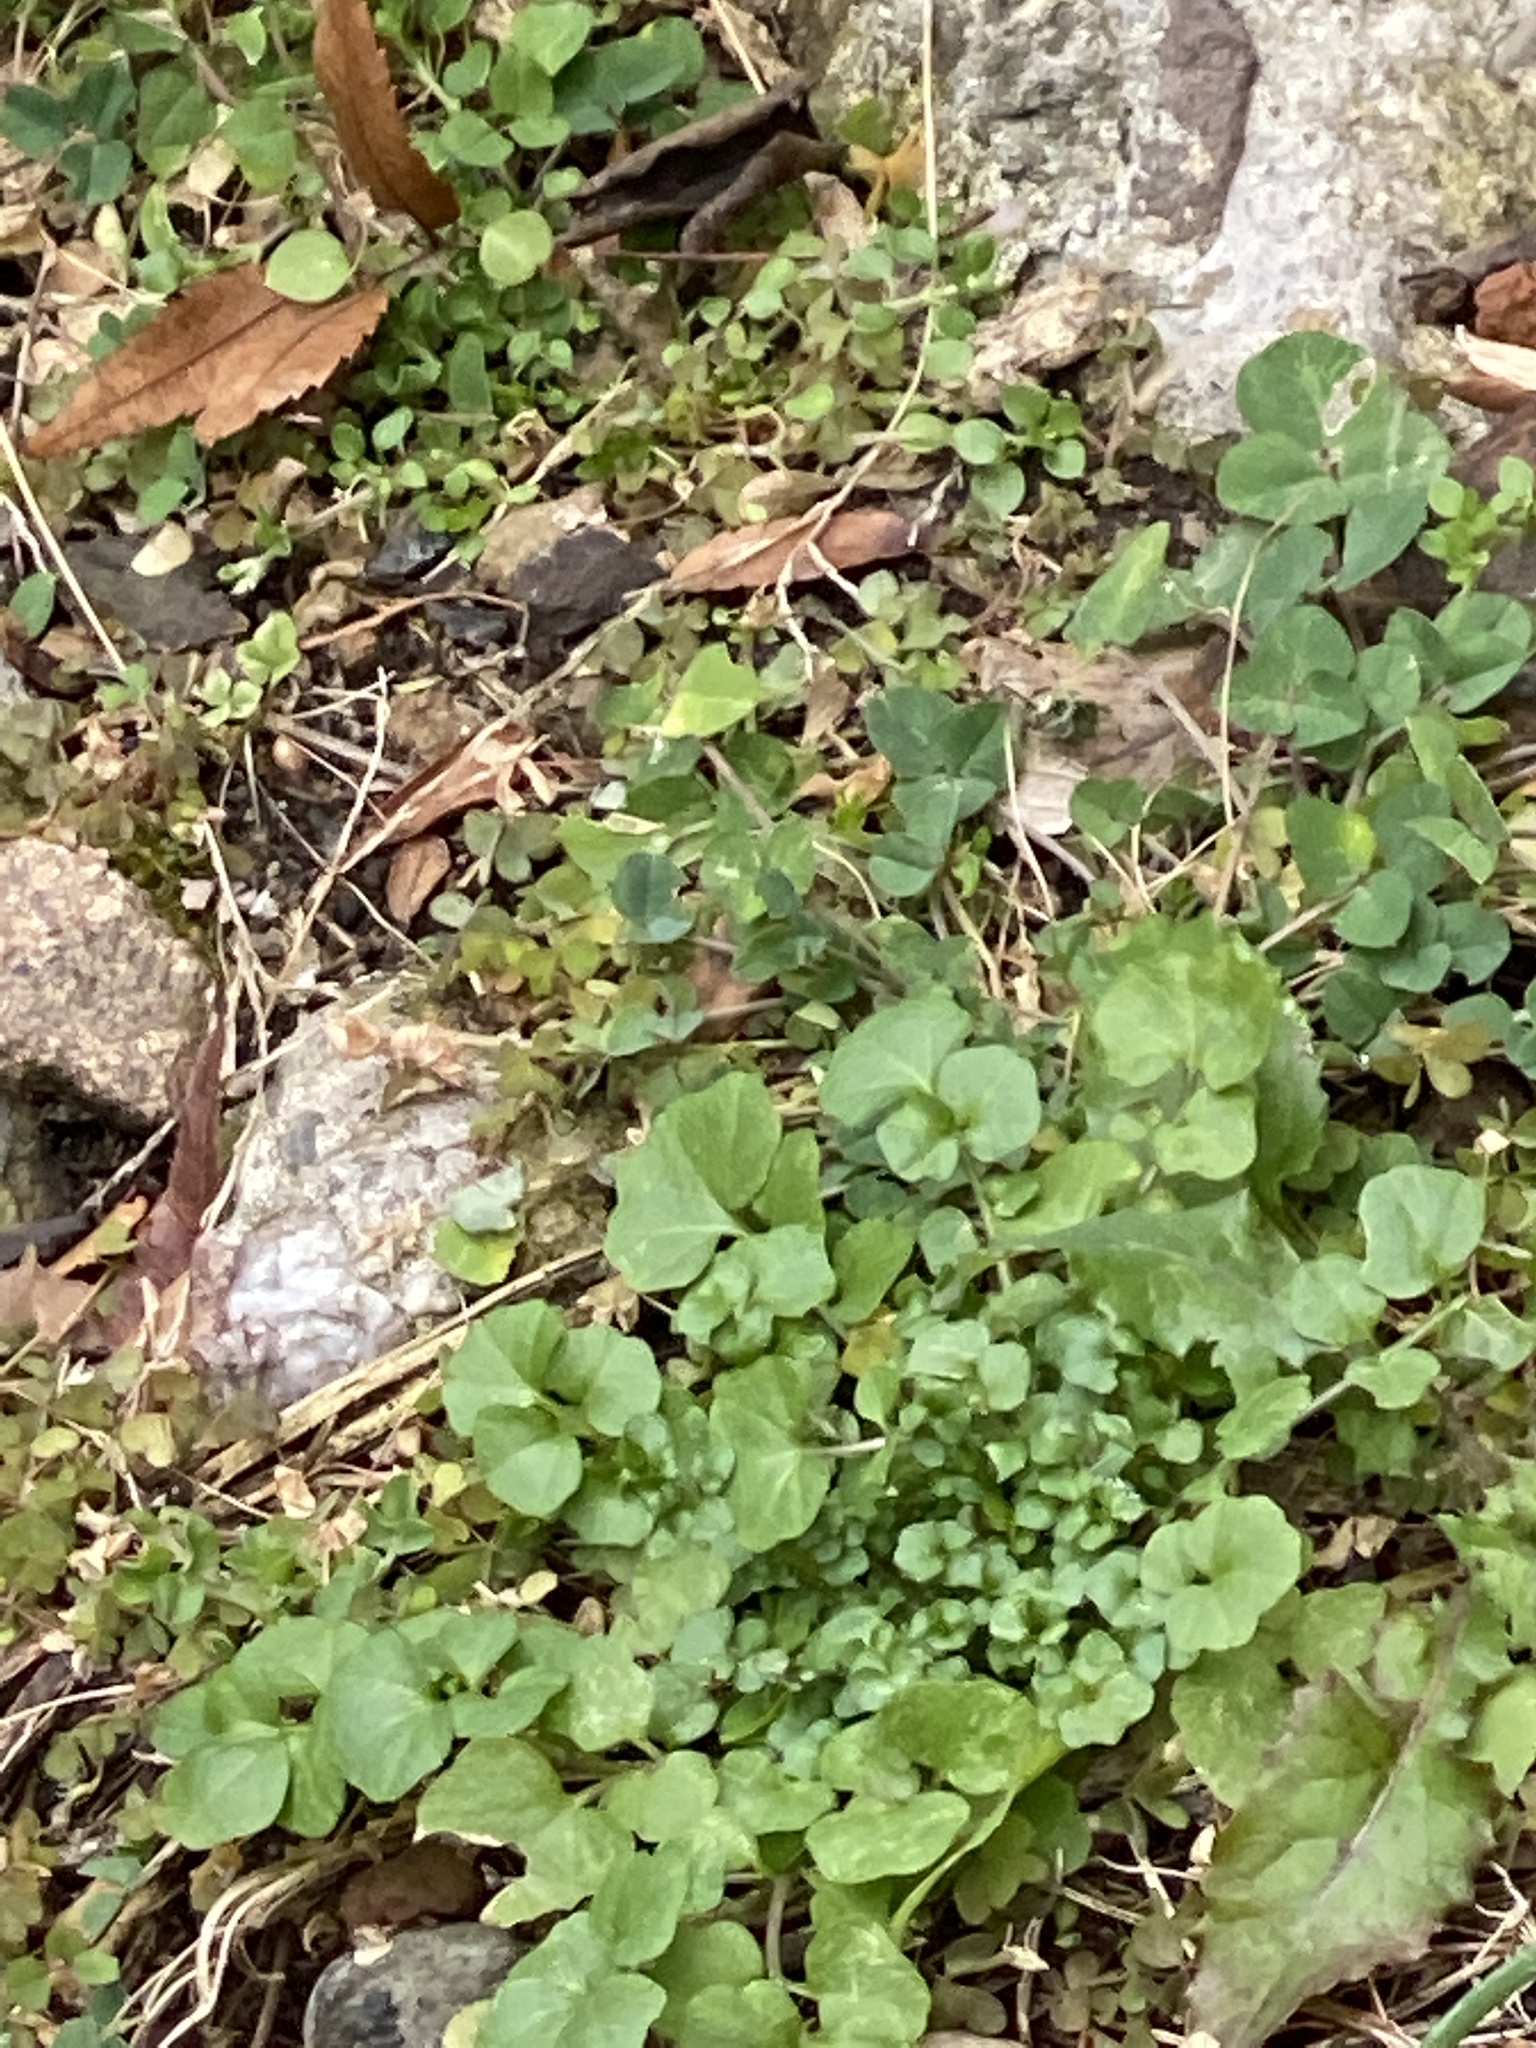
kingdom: Plantae
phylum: Tracheophyta
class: Magnoliopsida
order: Brassicales
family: Brassicaceae
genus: Cardamine
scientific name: Cardamine hirsuta
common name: Hairy bittercress
